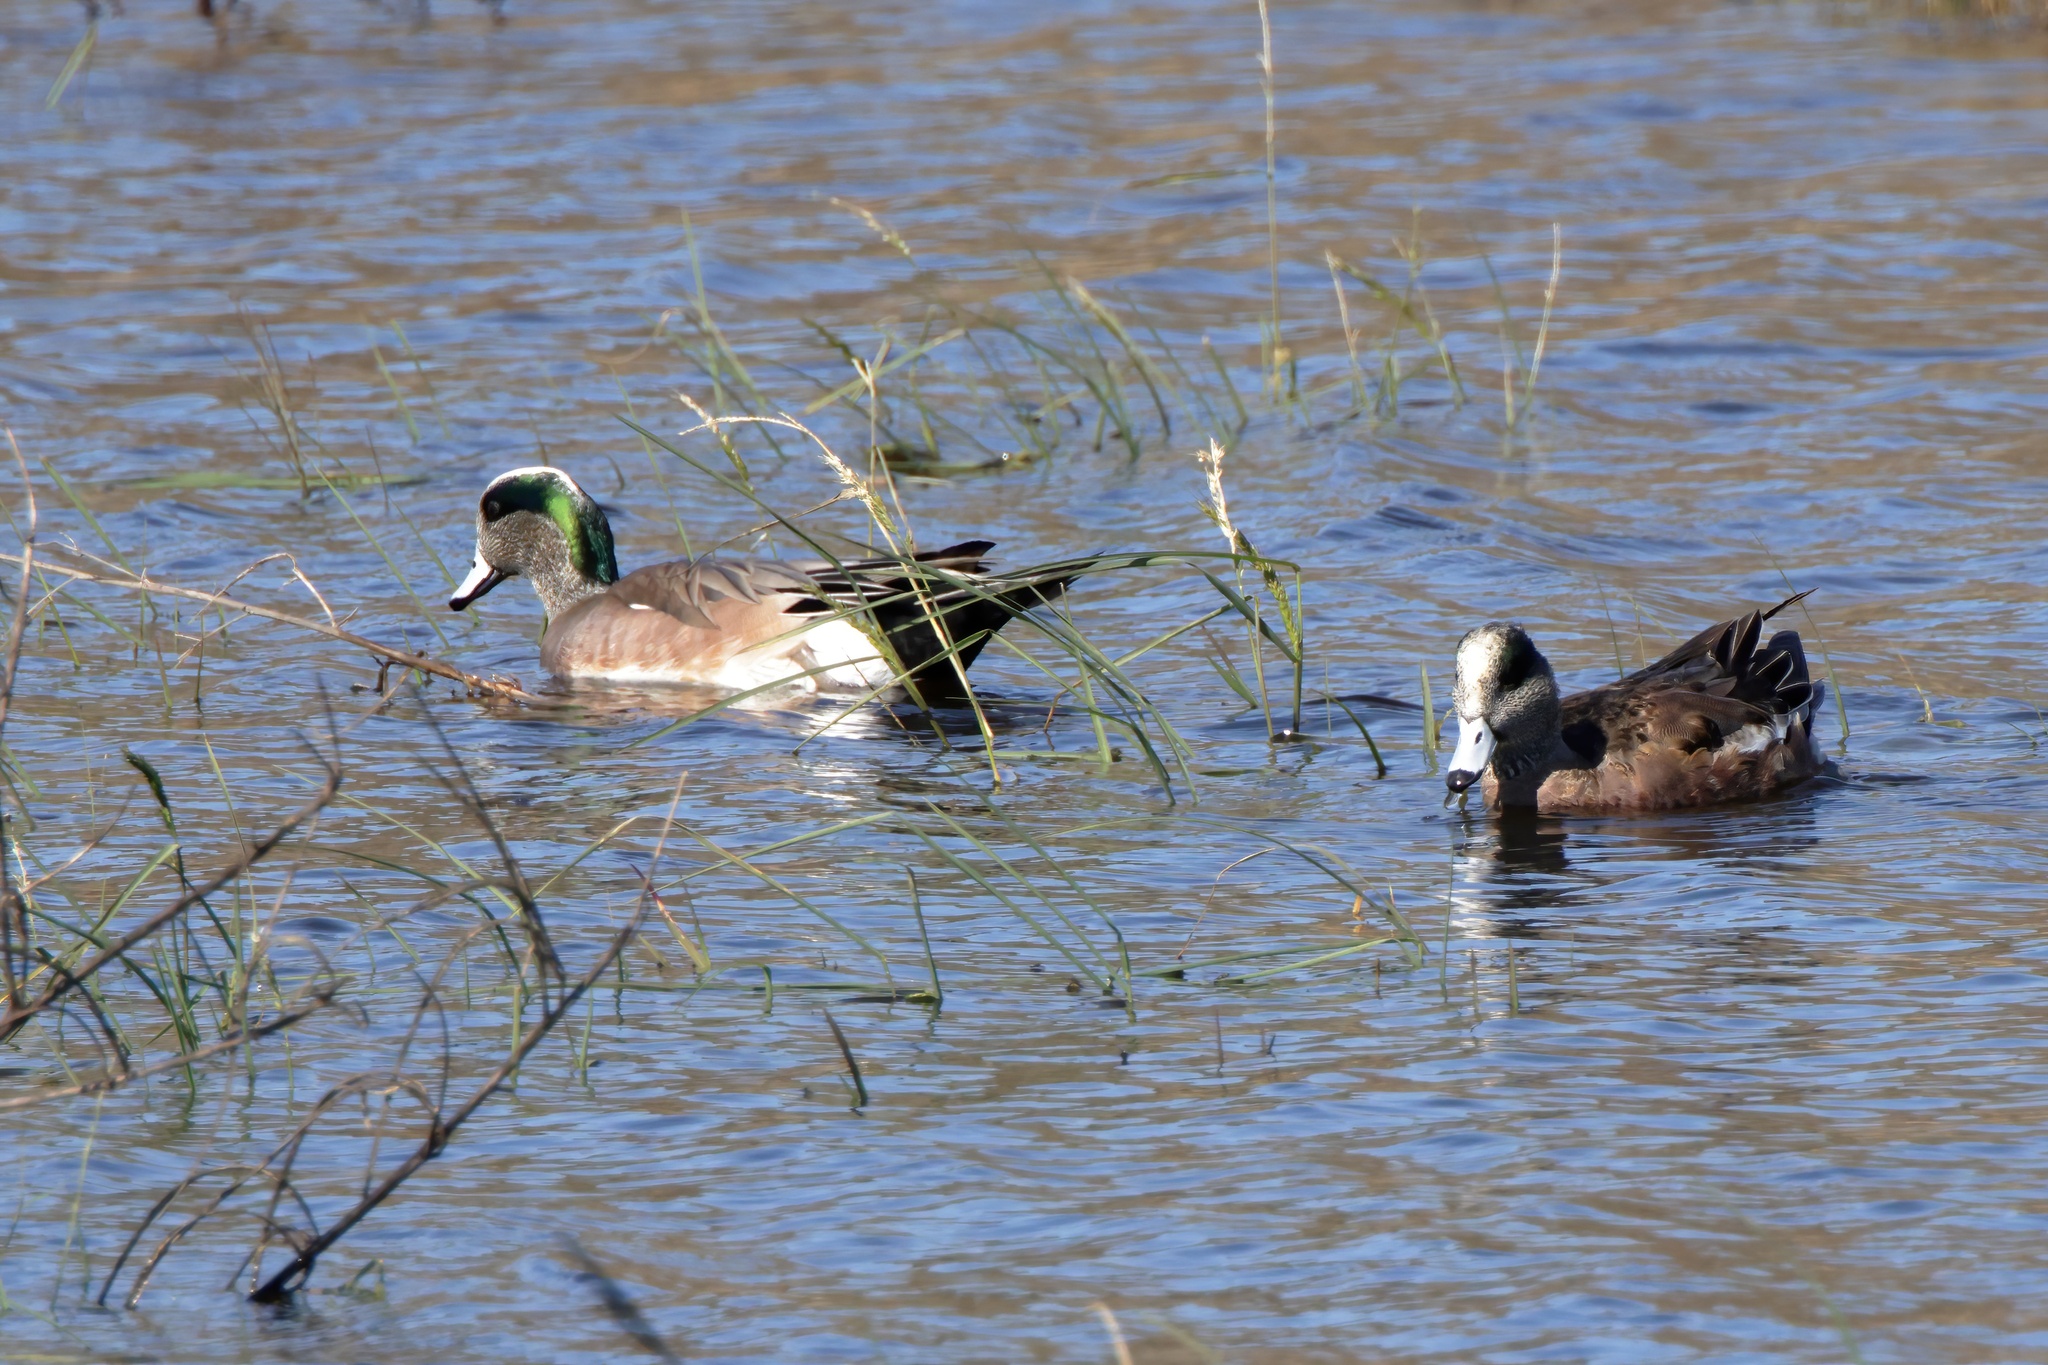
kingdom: Animalia
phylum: Chordata
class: Aves
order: Anseriformes
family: Anatidae
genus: Mareca
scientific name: Mareca americana
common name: American wigeon
